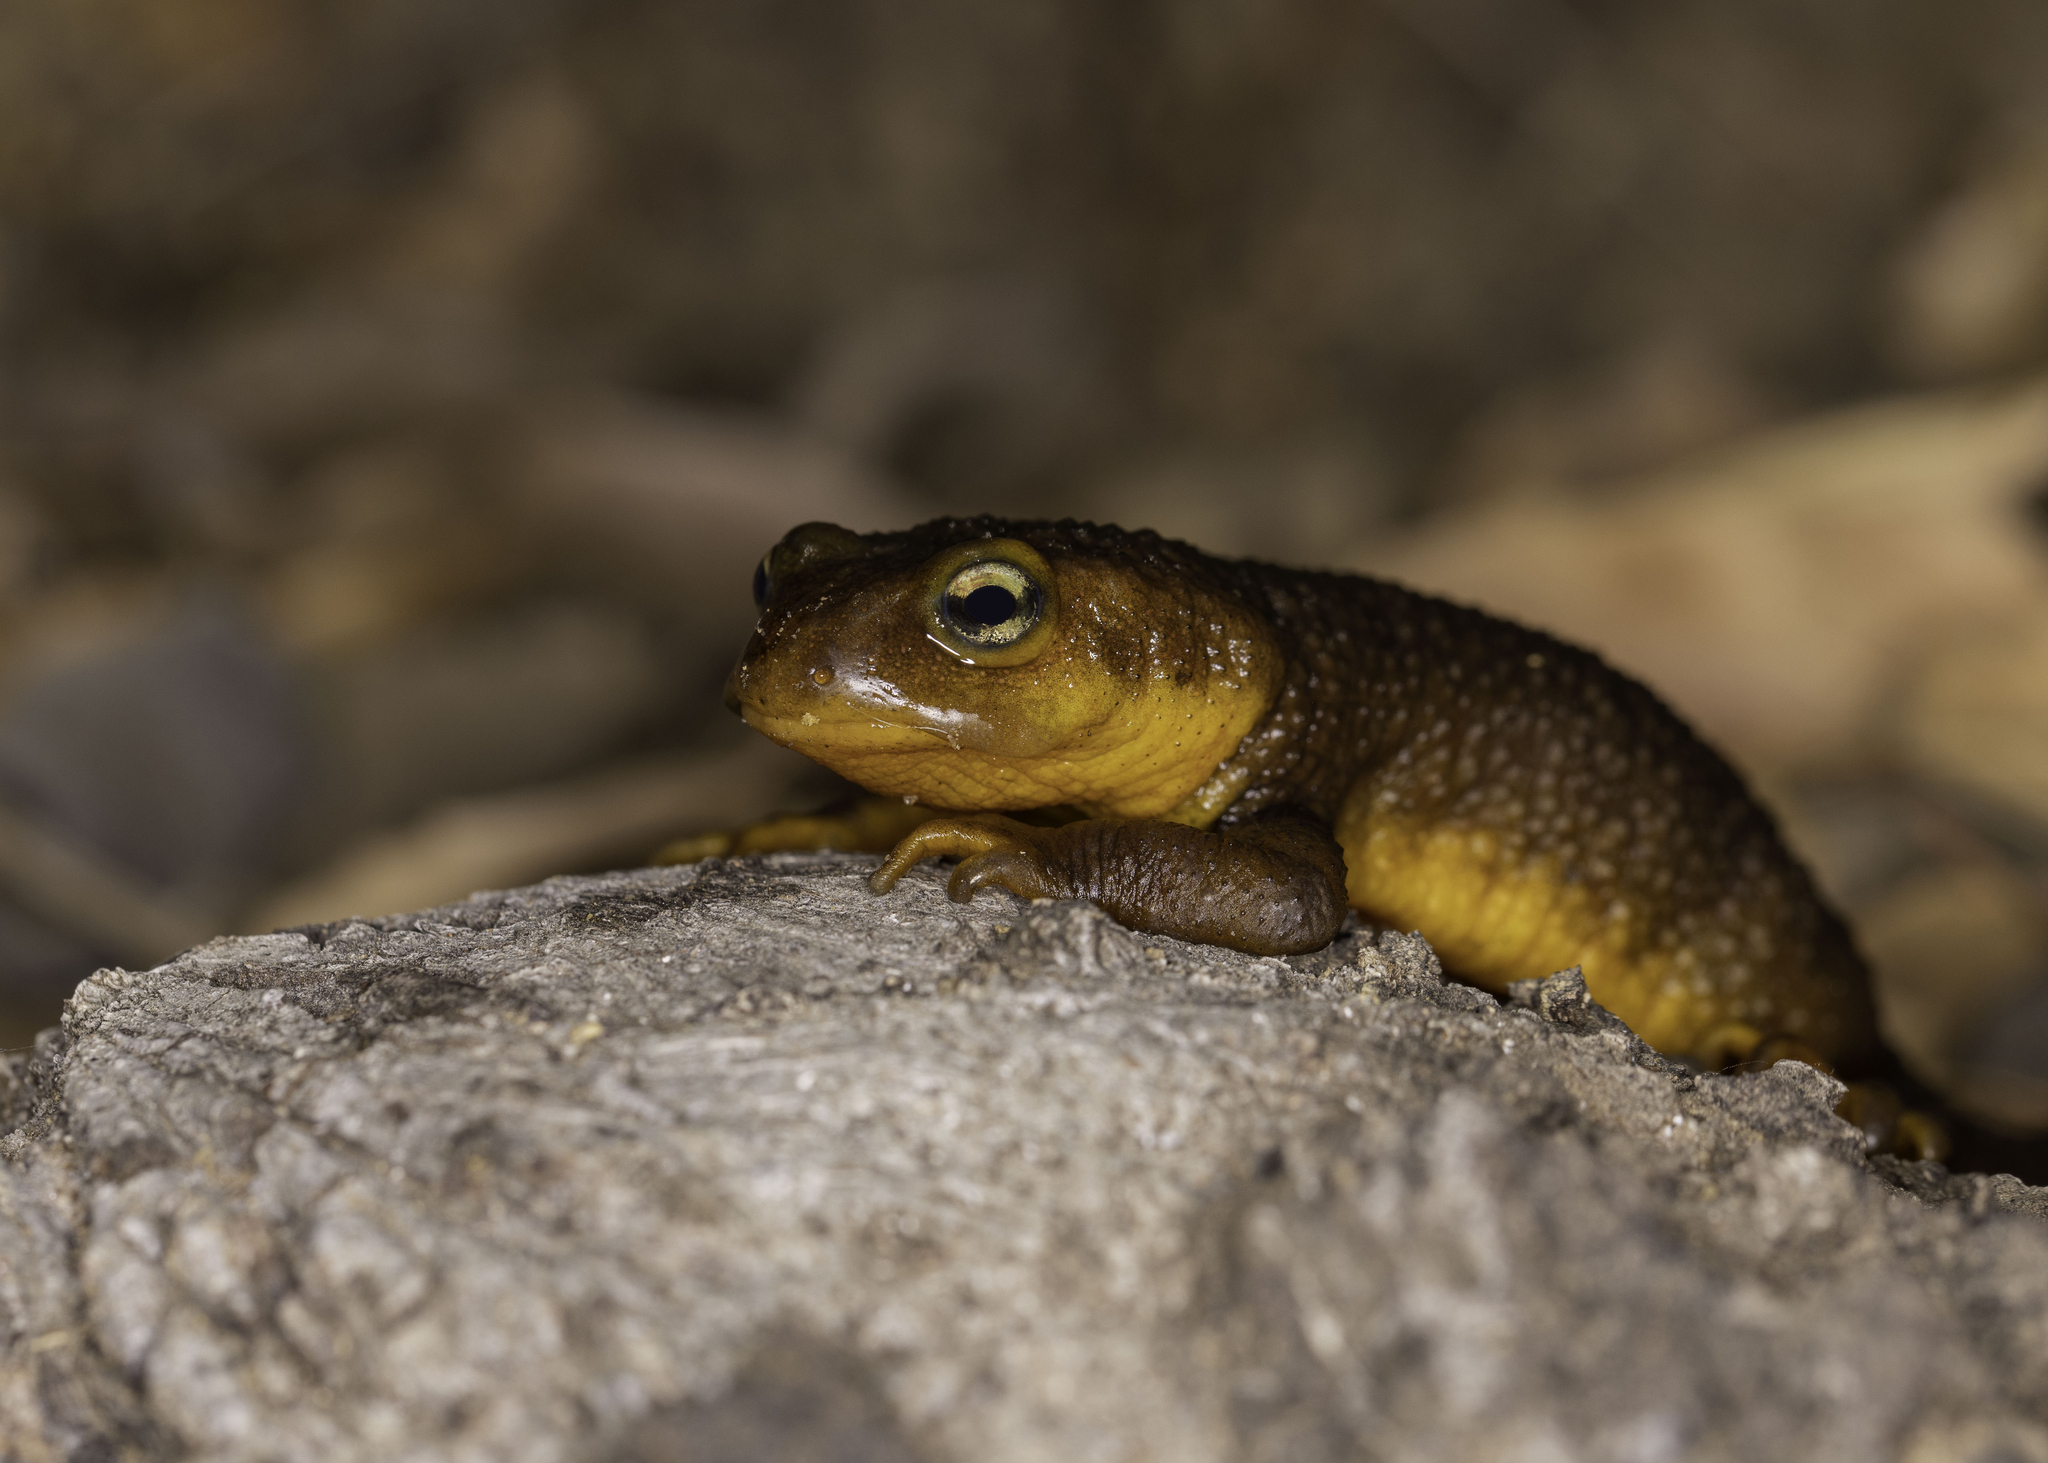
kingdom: Animalia
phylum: Chordata
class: Amphibia
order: Caudata
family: Salamandridae
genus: Taricha
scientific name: Taricha torosa
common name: California newt
